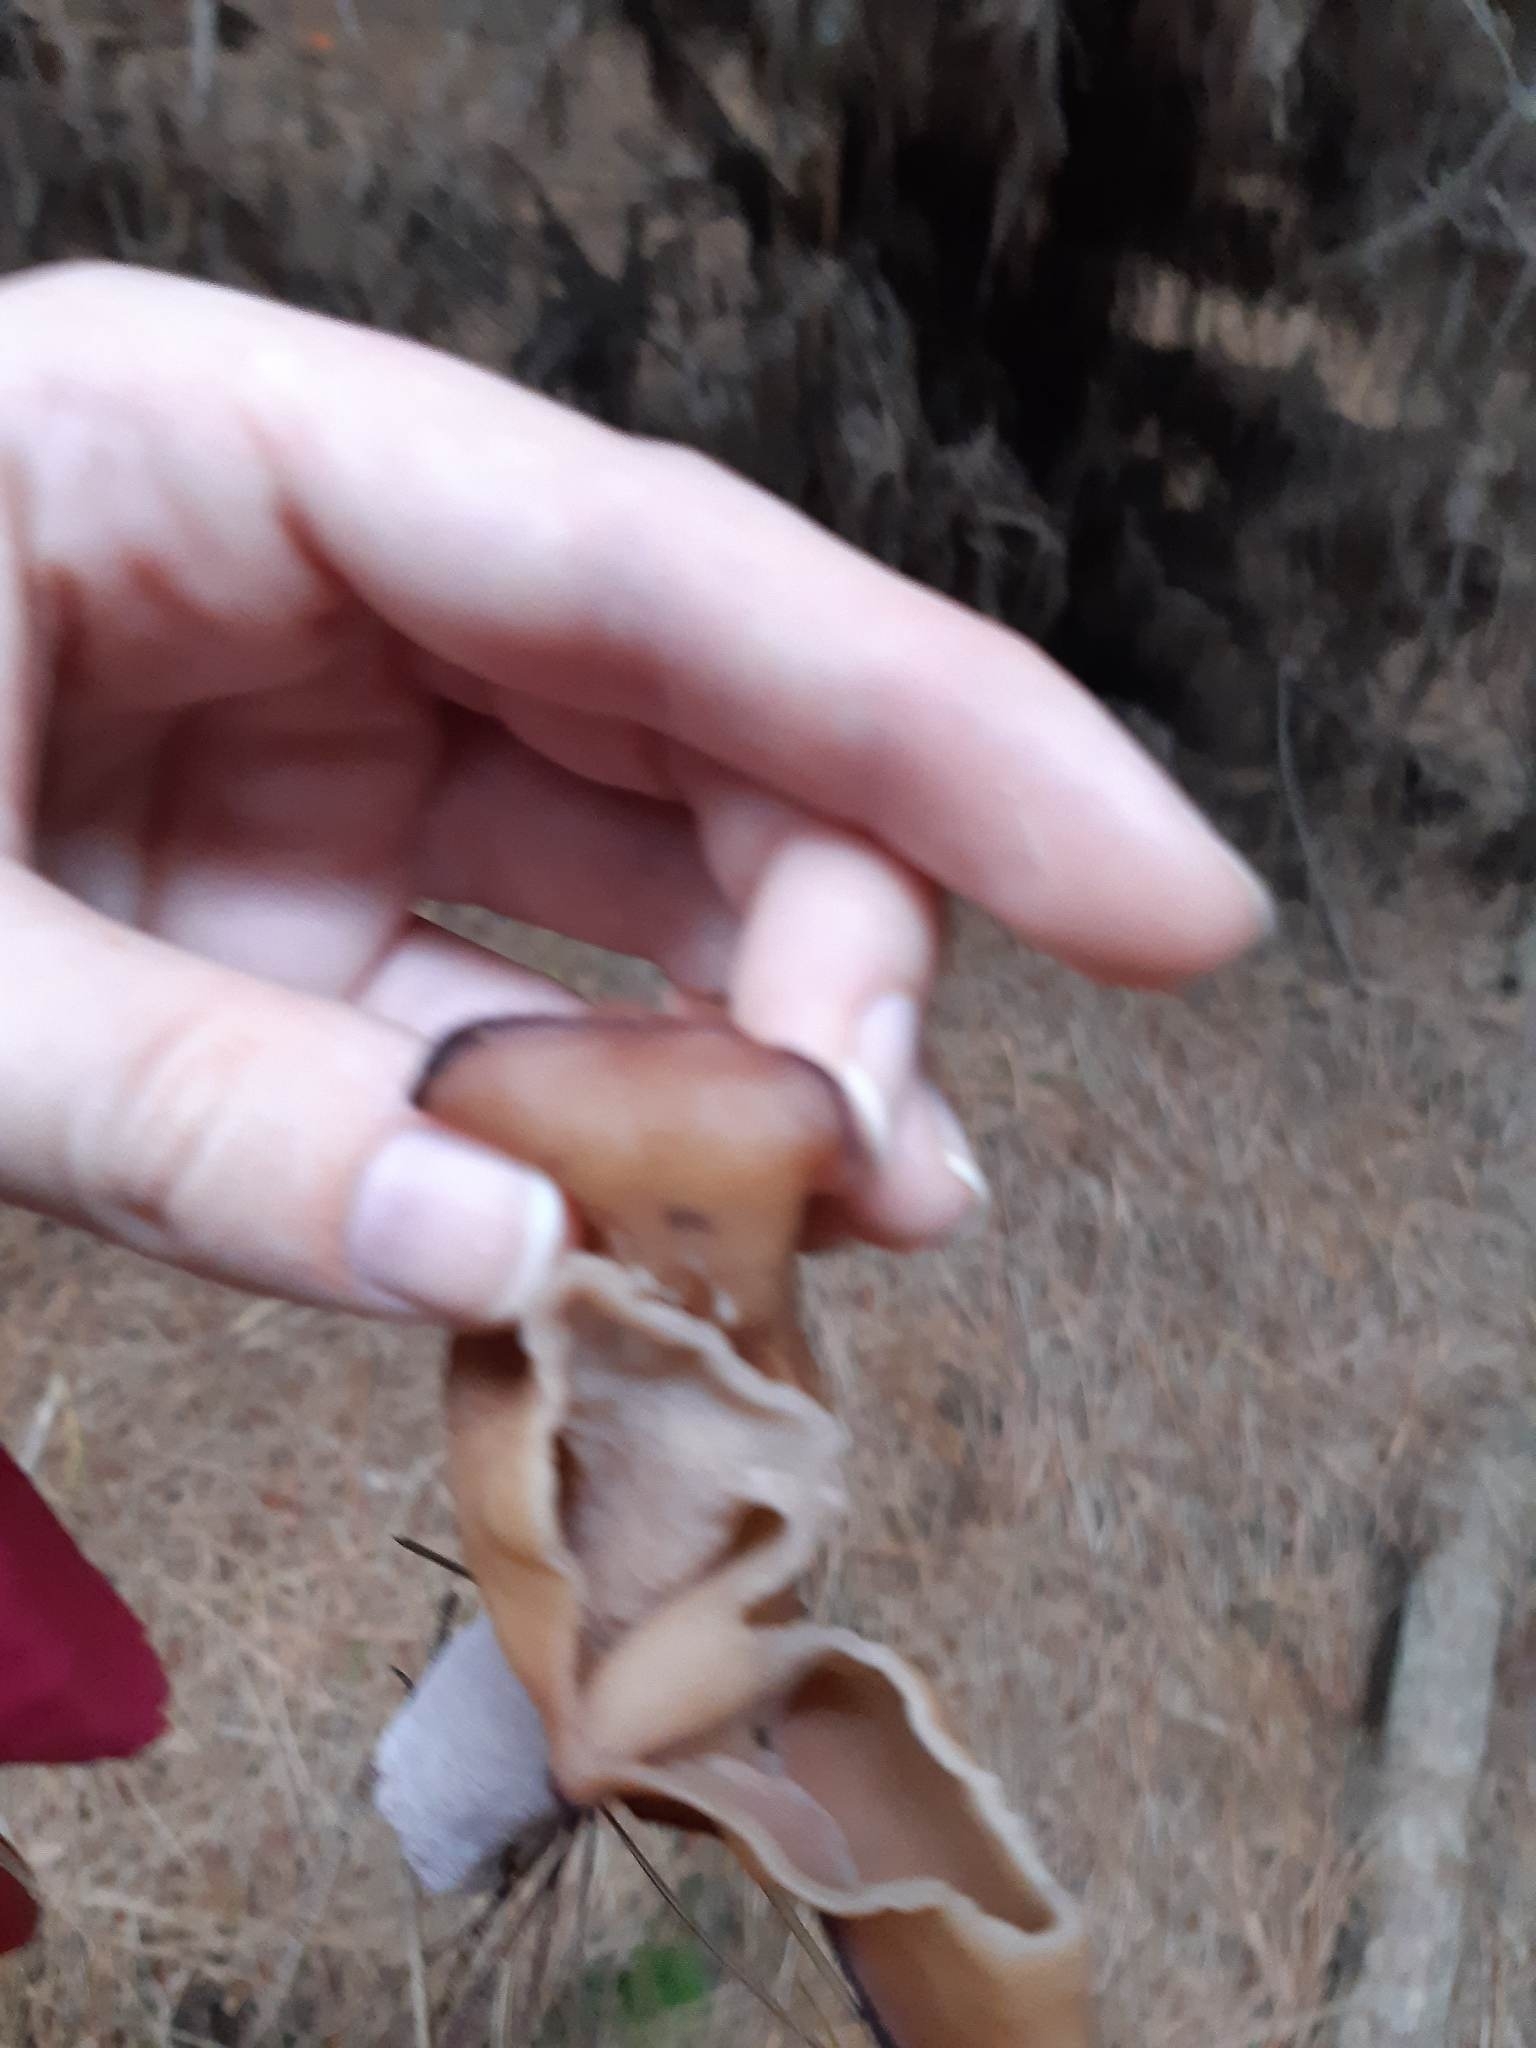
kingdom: Fungi
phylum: Ascomycota
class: Pezizomycetes
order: Pezizales
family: Discinaceae
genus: Gyromitra
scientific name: Gyromitra infula
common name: Pouched false morel
